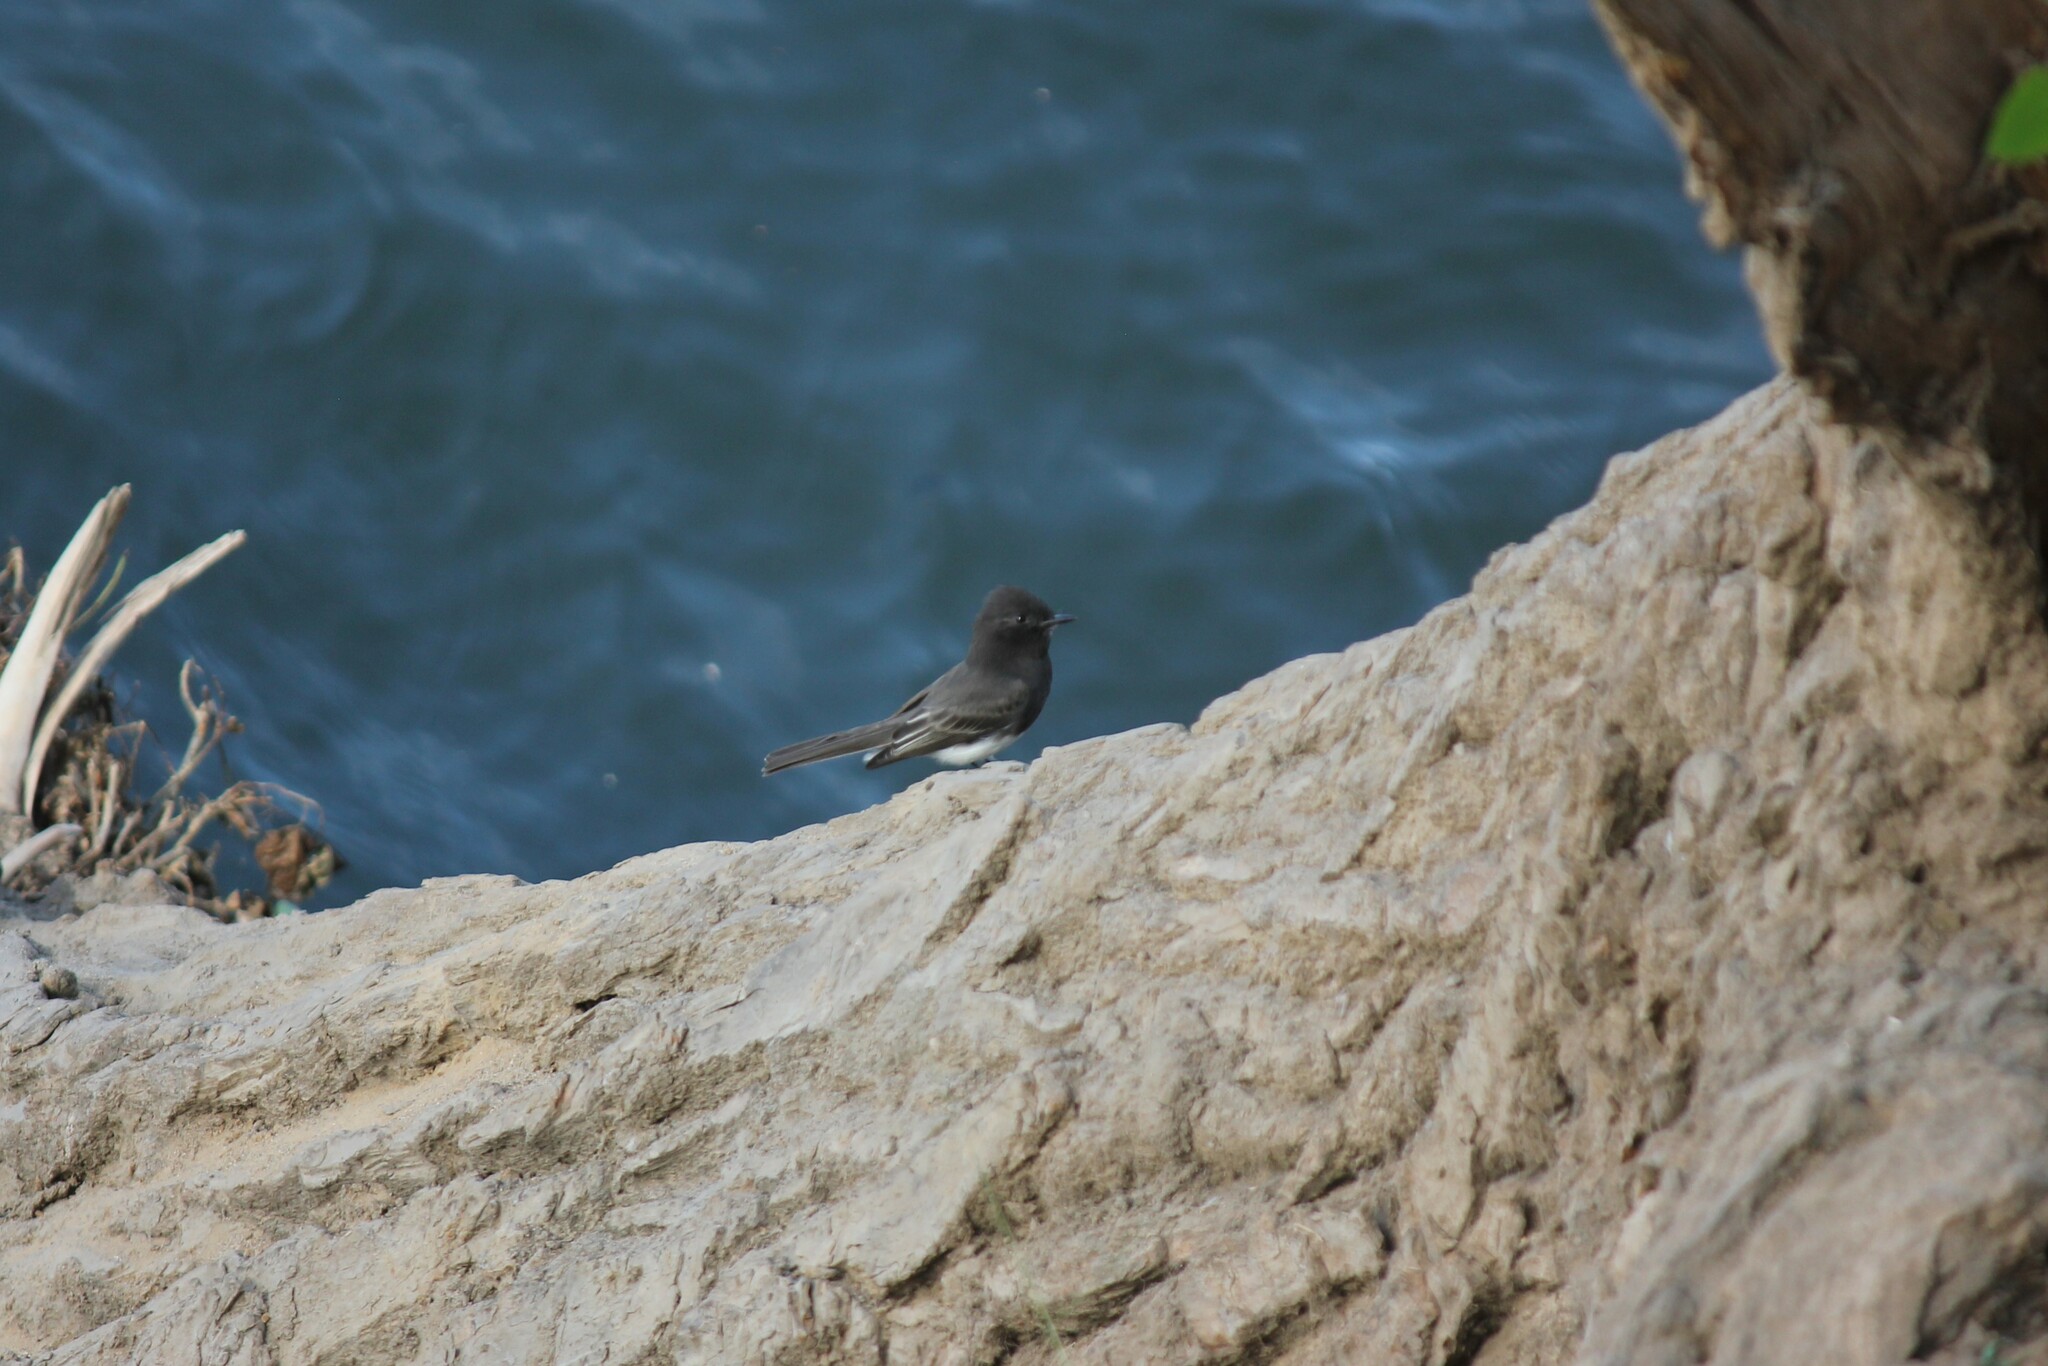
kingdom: Animalia
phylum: Chordata
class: Aves
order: Passeriformes
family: Tyrannidae
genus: Sayornis
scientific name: Sayornis nigricans
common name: Black phoebe
